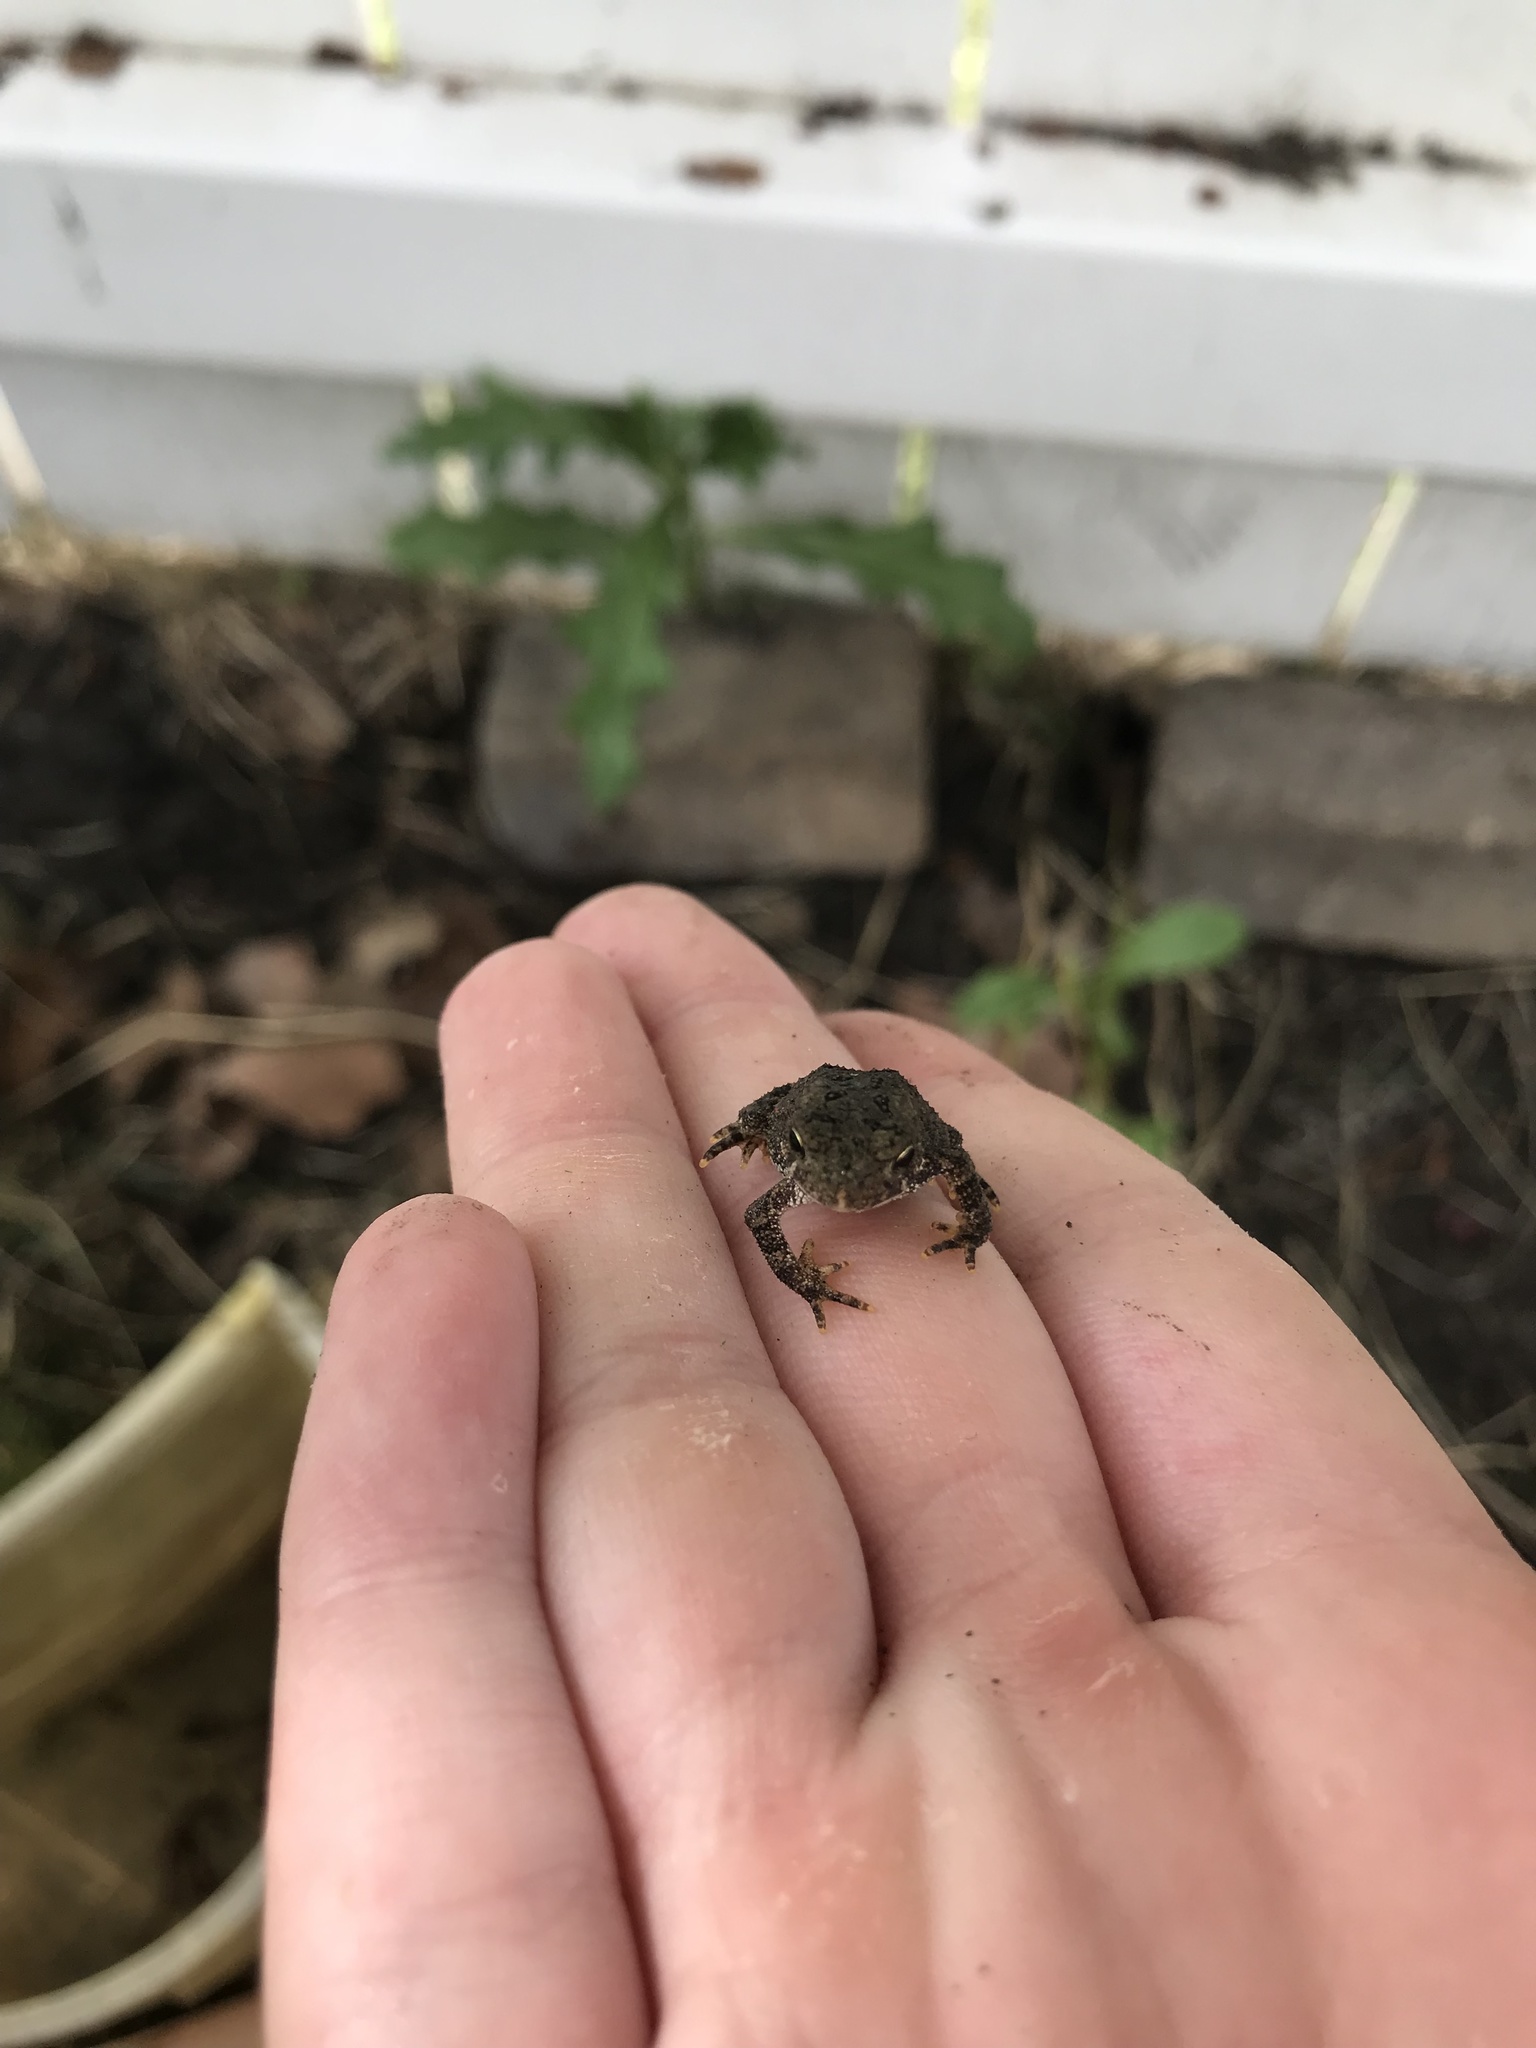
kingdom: Animalia
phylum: Chordata
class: Amphibia
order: Anura
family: Bufonidae
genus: Anaxyrus
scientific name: Anaxyrus americanus
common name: American toad
